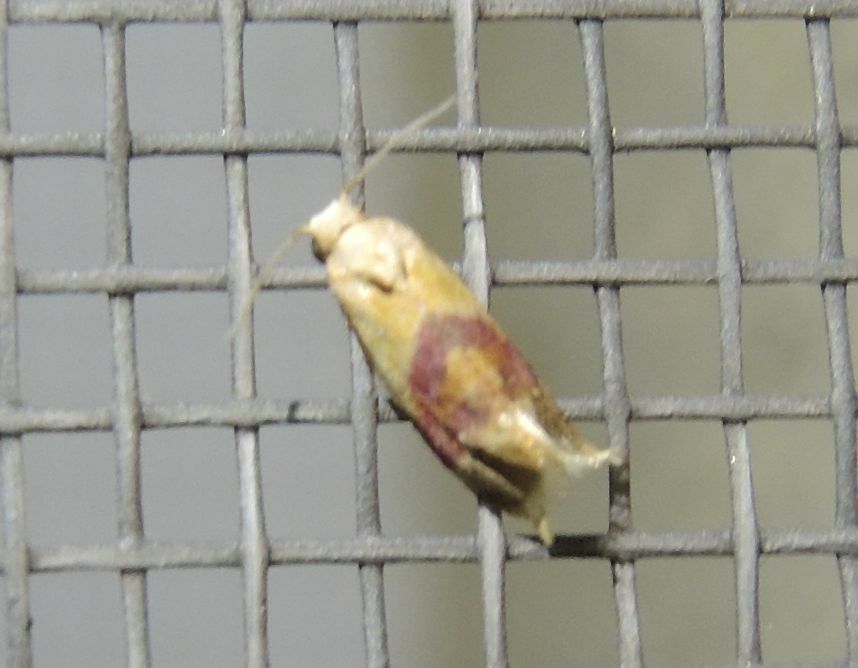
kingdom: Animalia
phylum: Arthropoda
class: Insecta
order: Lepidoptera
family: Tortricidae
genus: Diceratura
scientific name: Diceratura ostrinana
